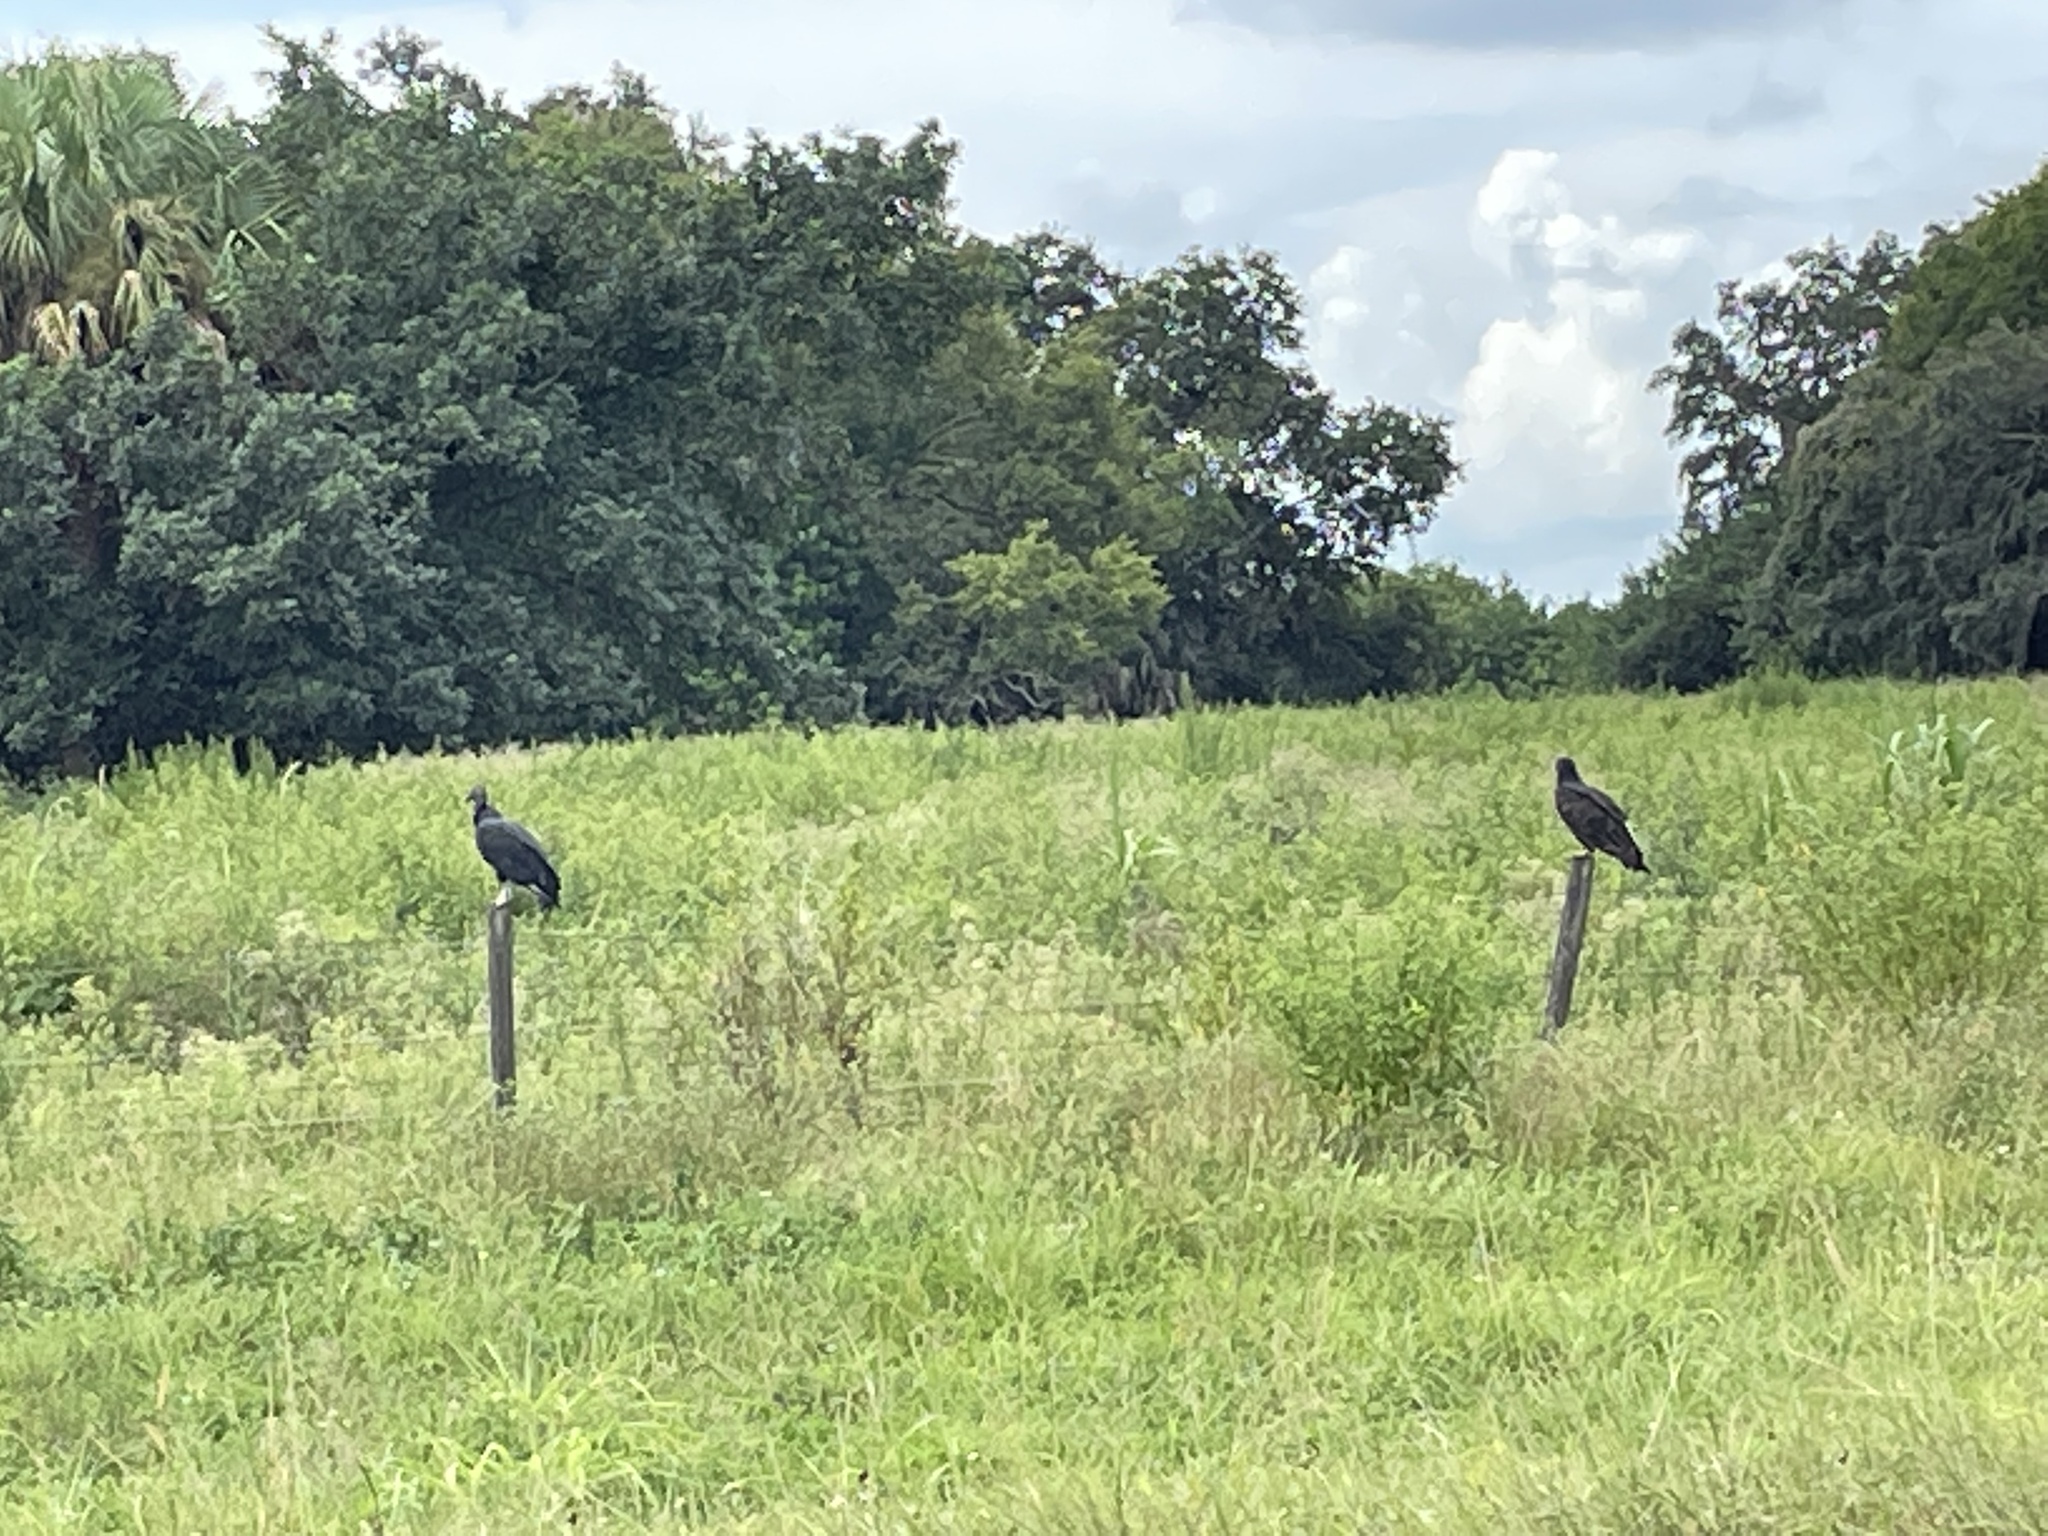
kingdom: Animalia
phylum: Chordata
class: Aves
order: Accipitriformes
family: Cathartidae
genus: Coragyps
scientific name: Coragyps atratus
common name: Black vulture
